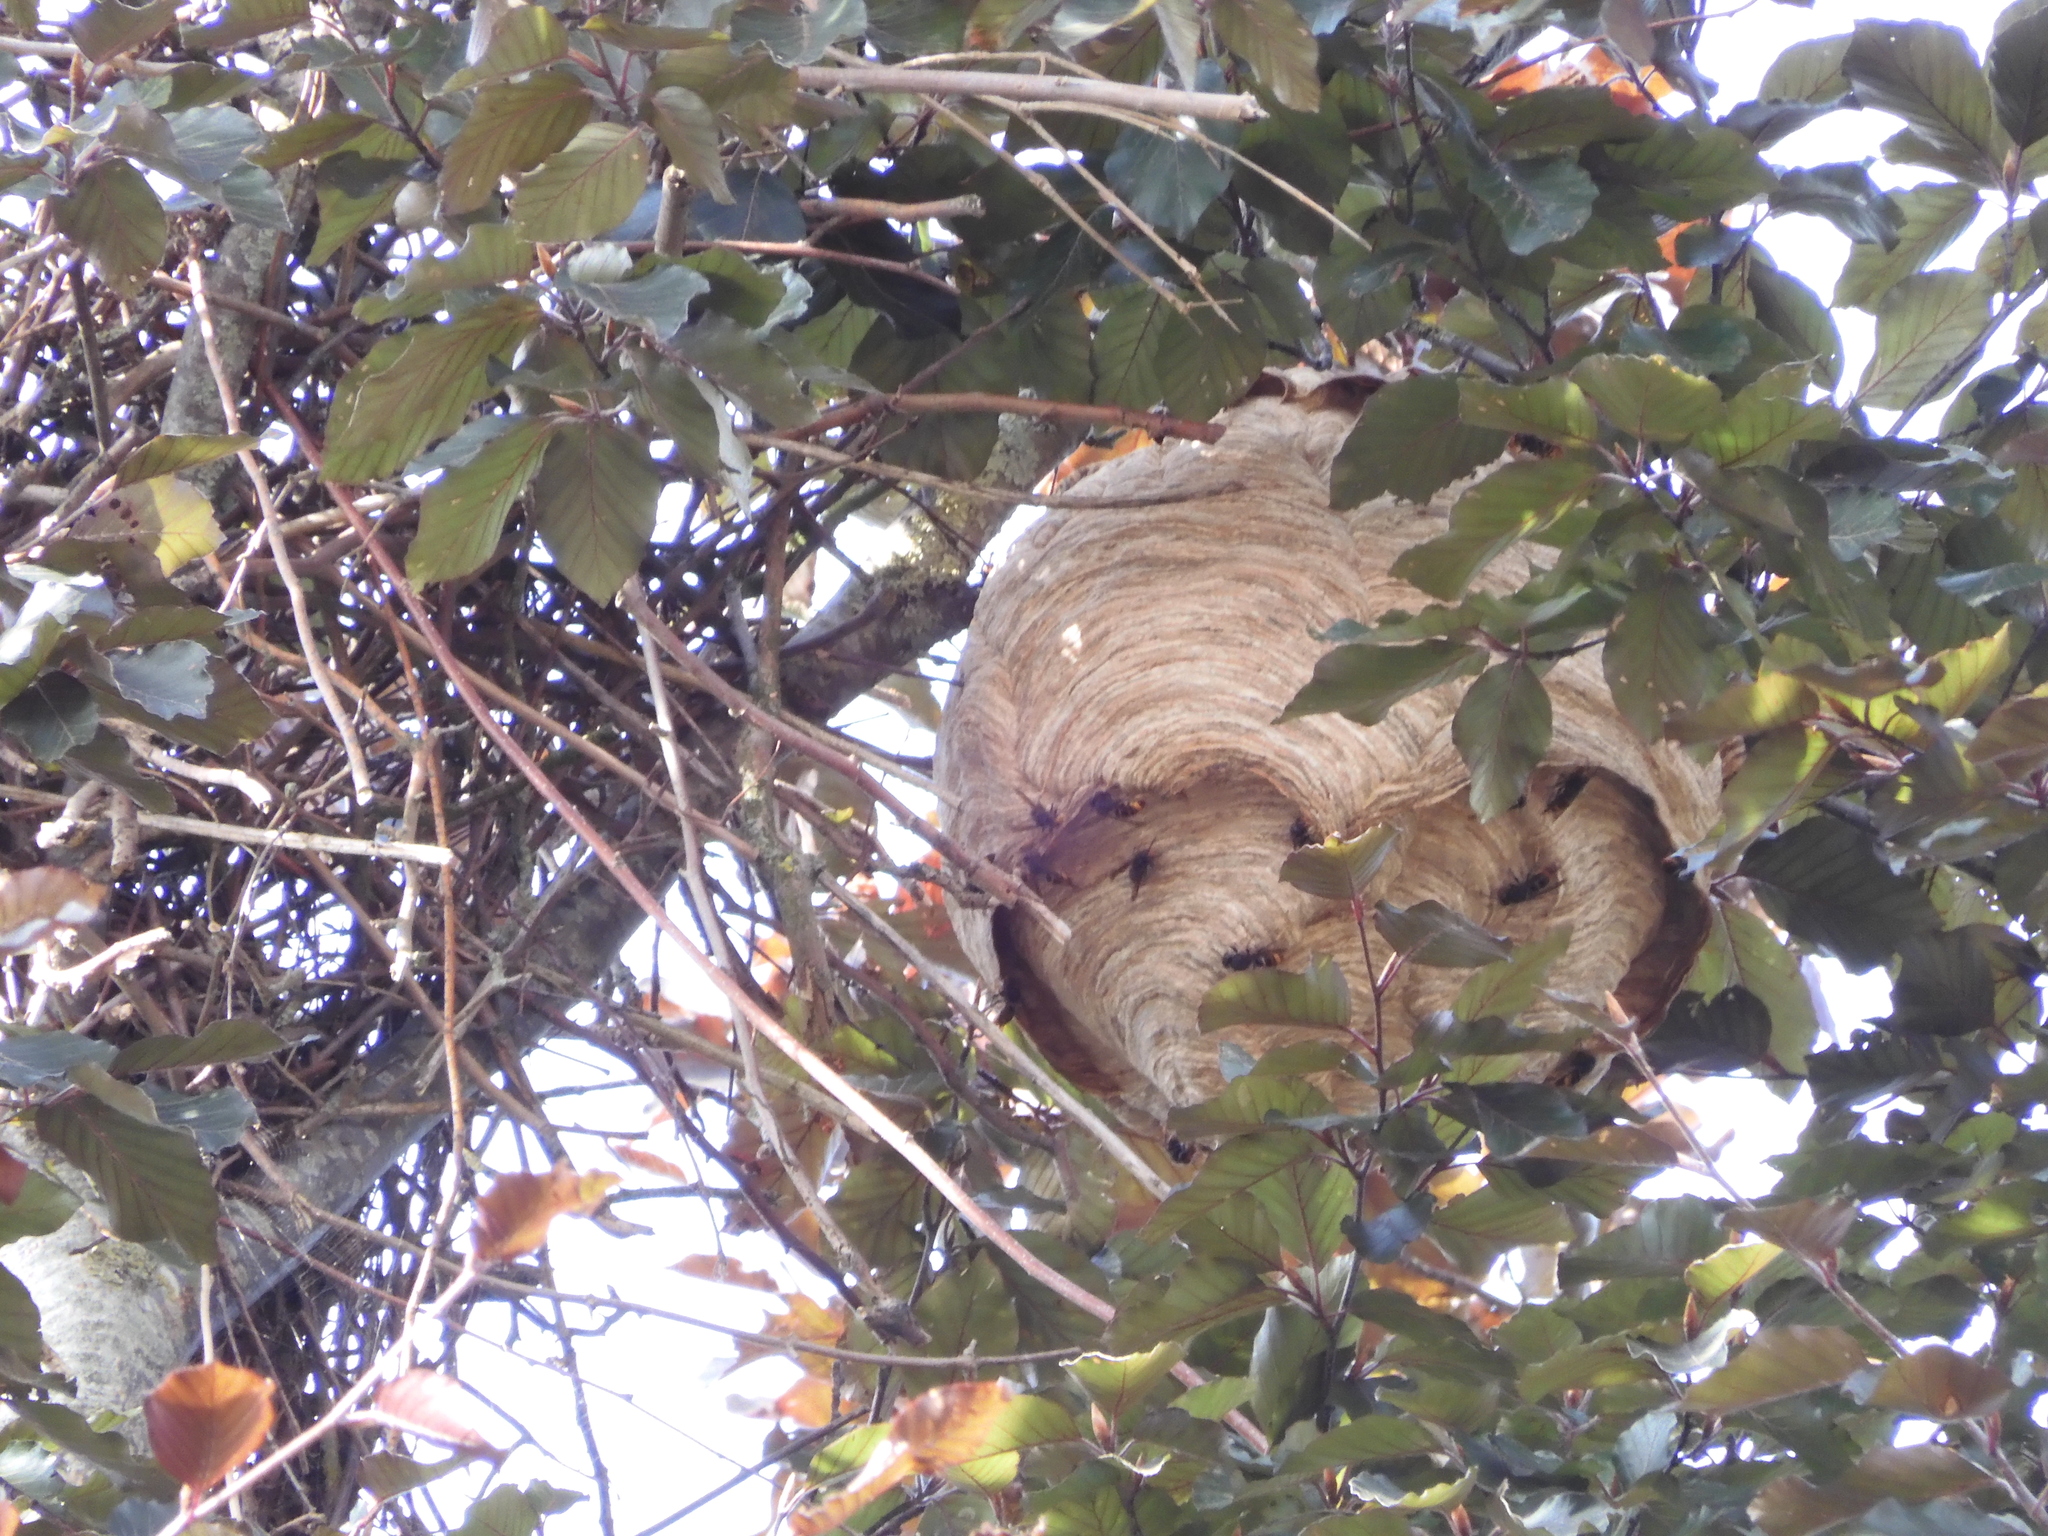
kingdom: Animalia
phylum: Arthropoda
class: Insecta
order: Hymenoptera
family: Vespidae
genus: Vespa
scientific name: Vespa velutina
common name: Asian hornet
